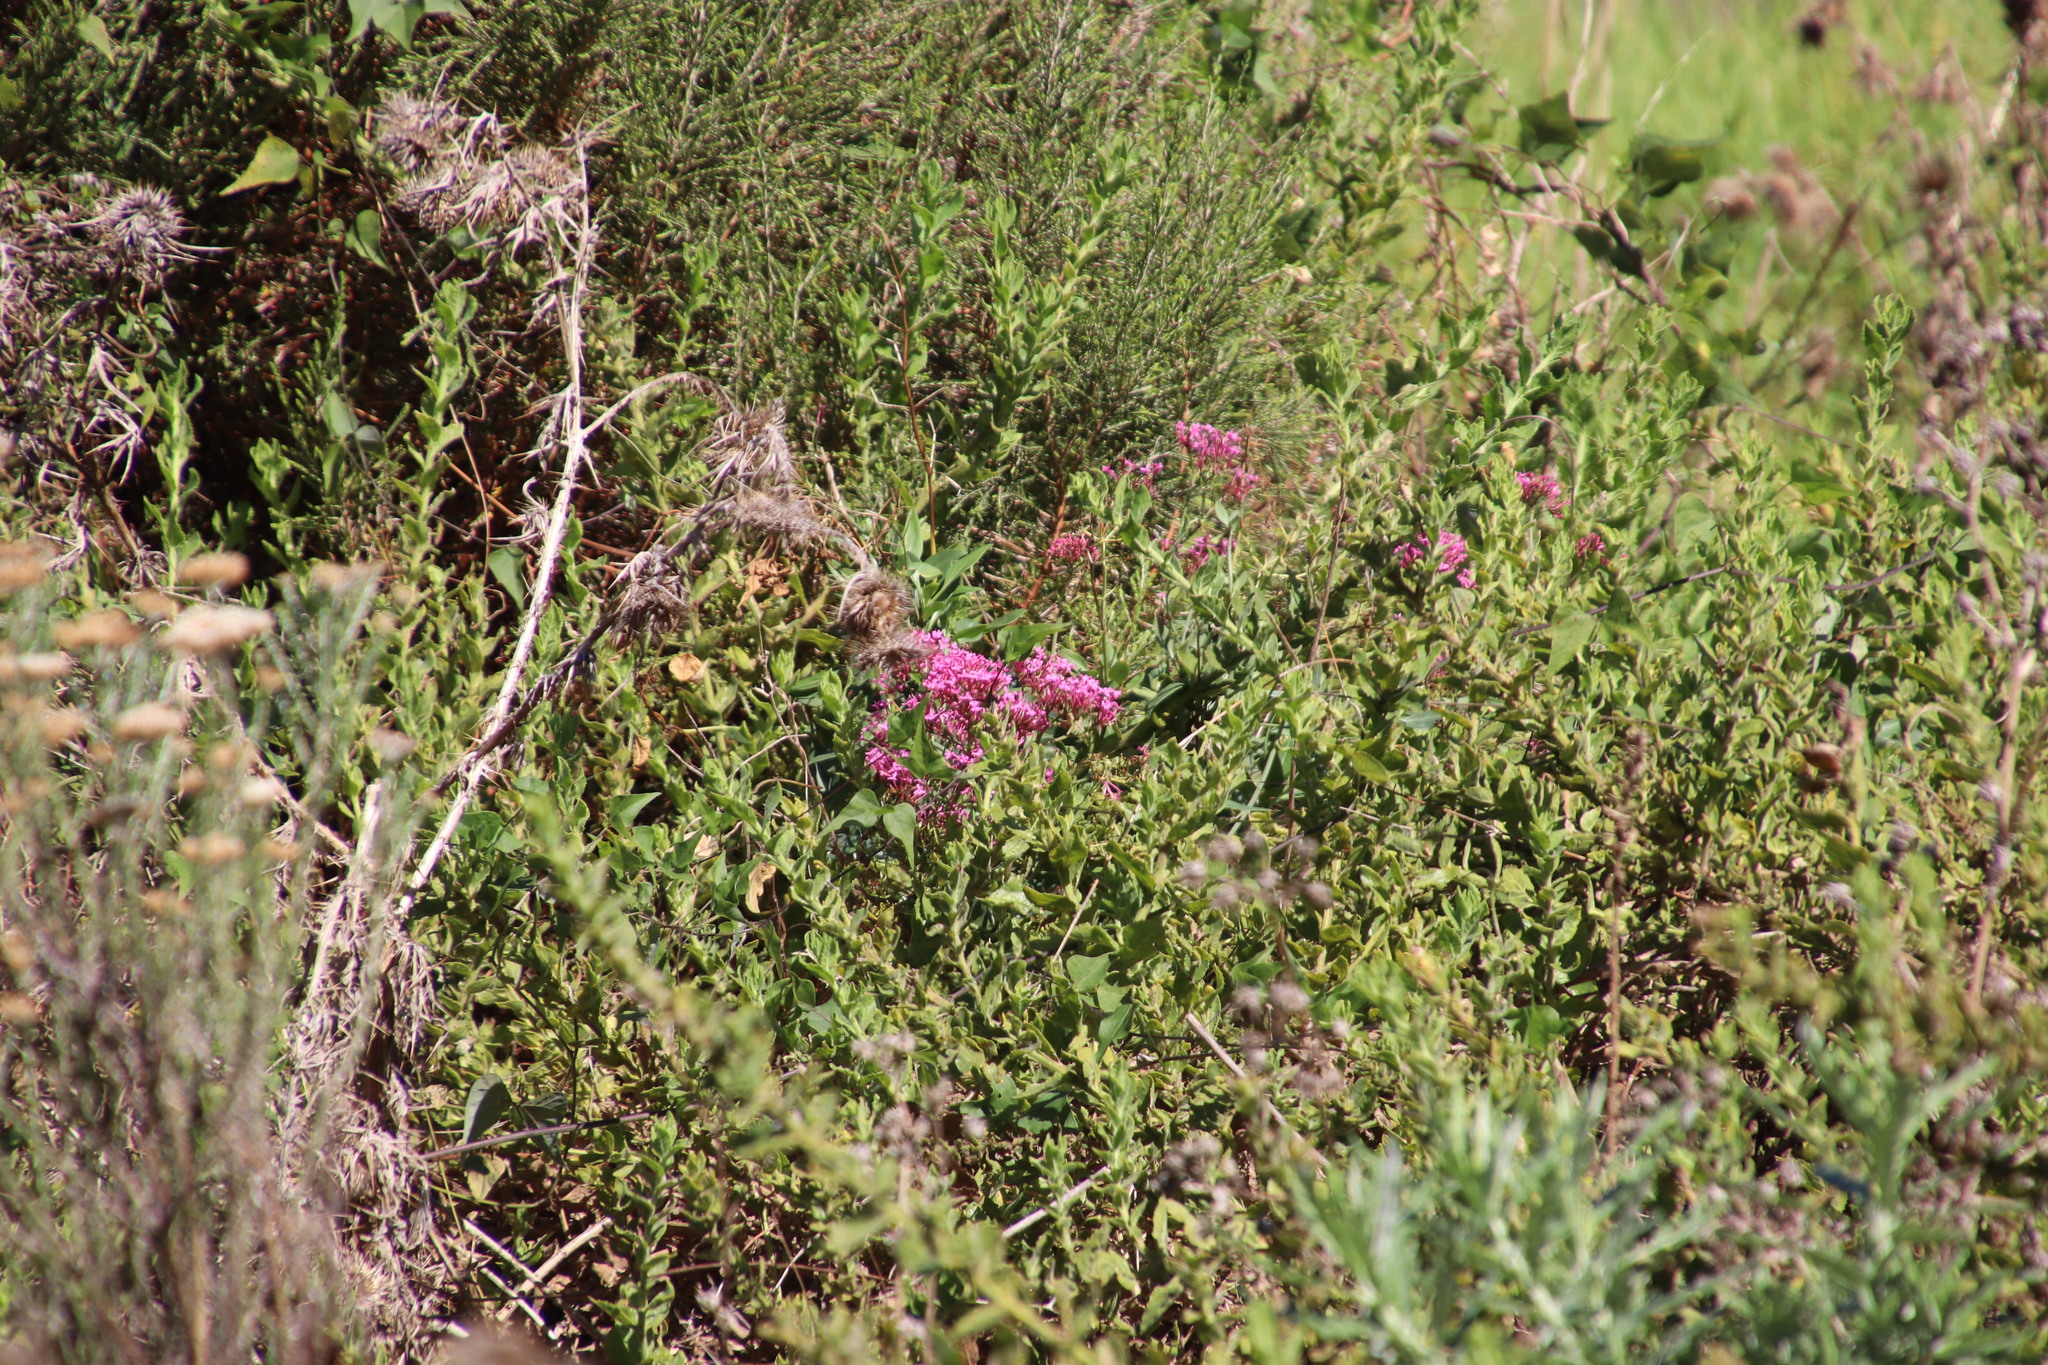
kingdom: Plantae
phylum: Tracheophyta
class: Magnoliopsida
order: Dipsacales
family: Caprifoliaceae
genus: Centranthus
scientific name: Centranthus ruber
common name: Red valerian
